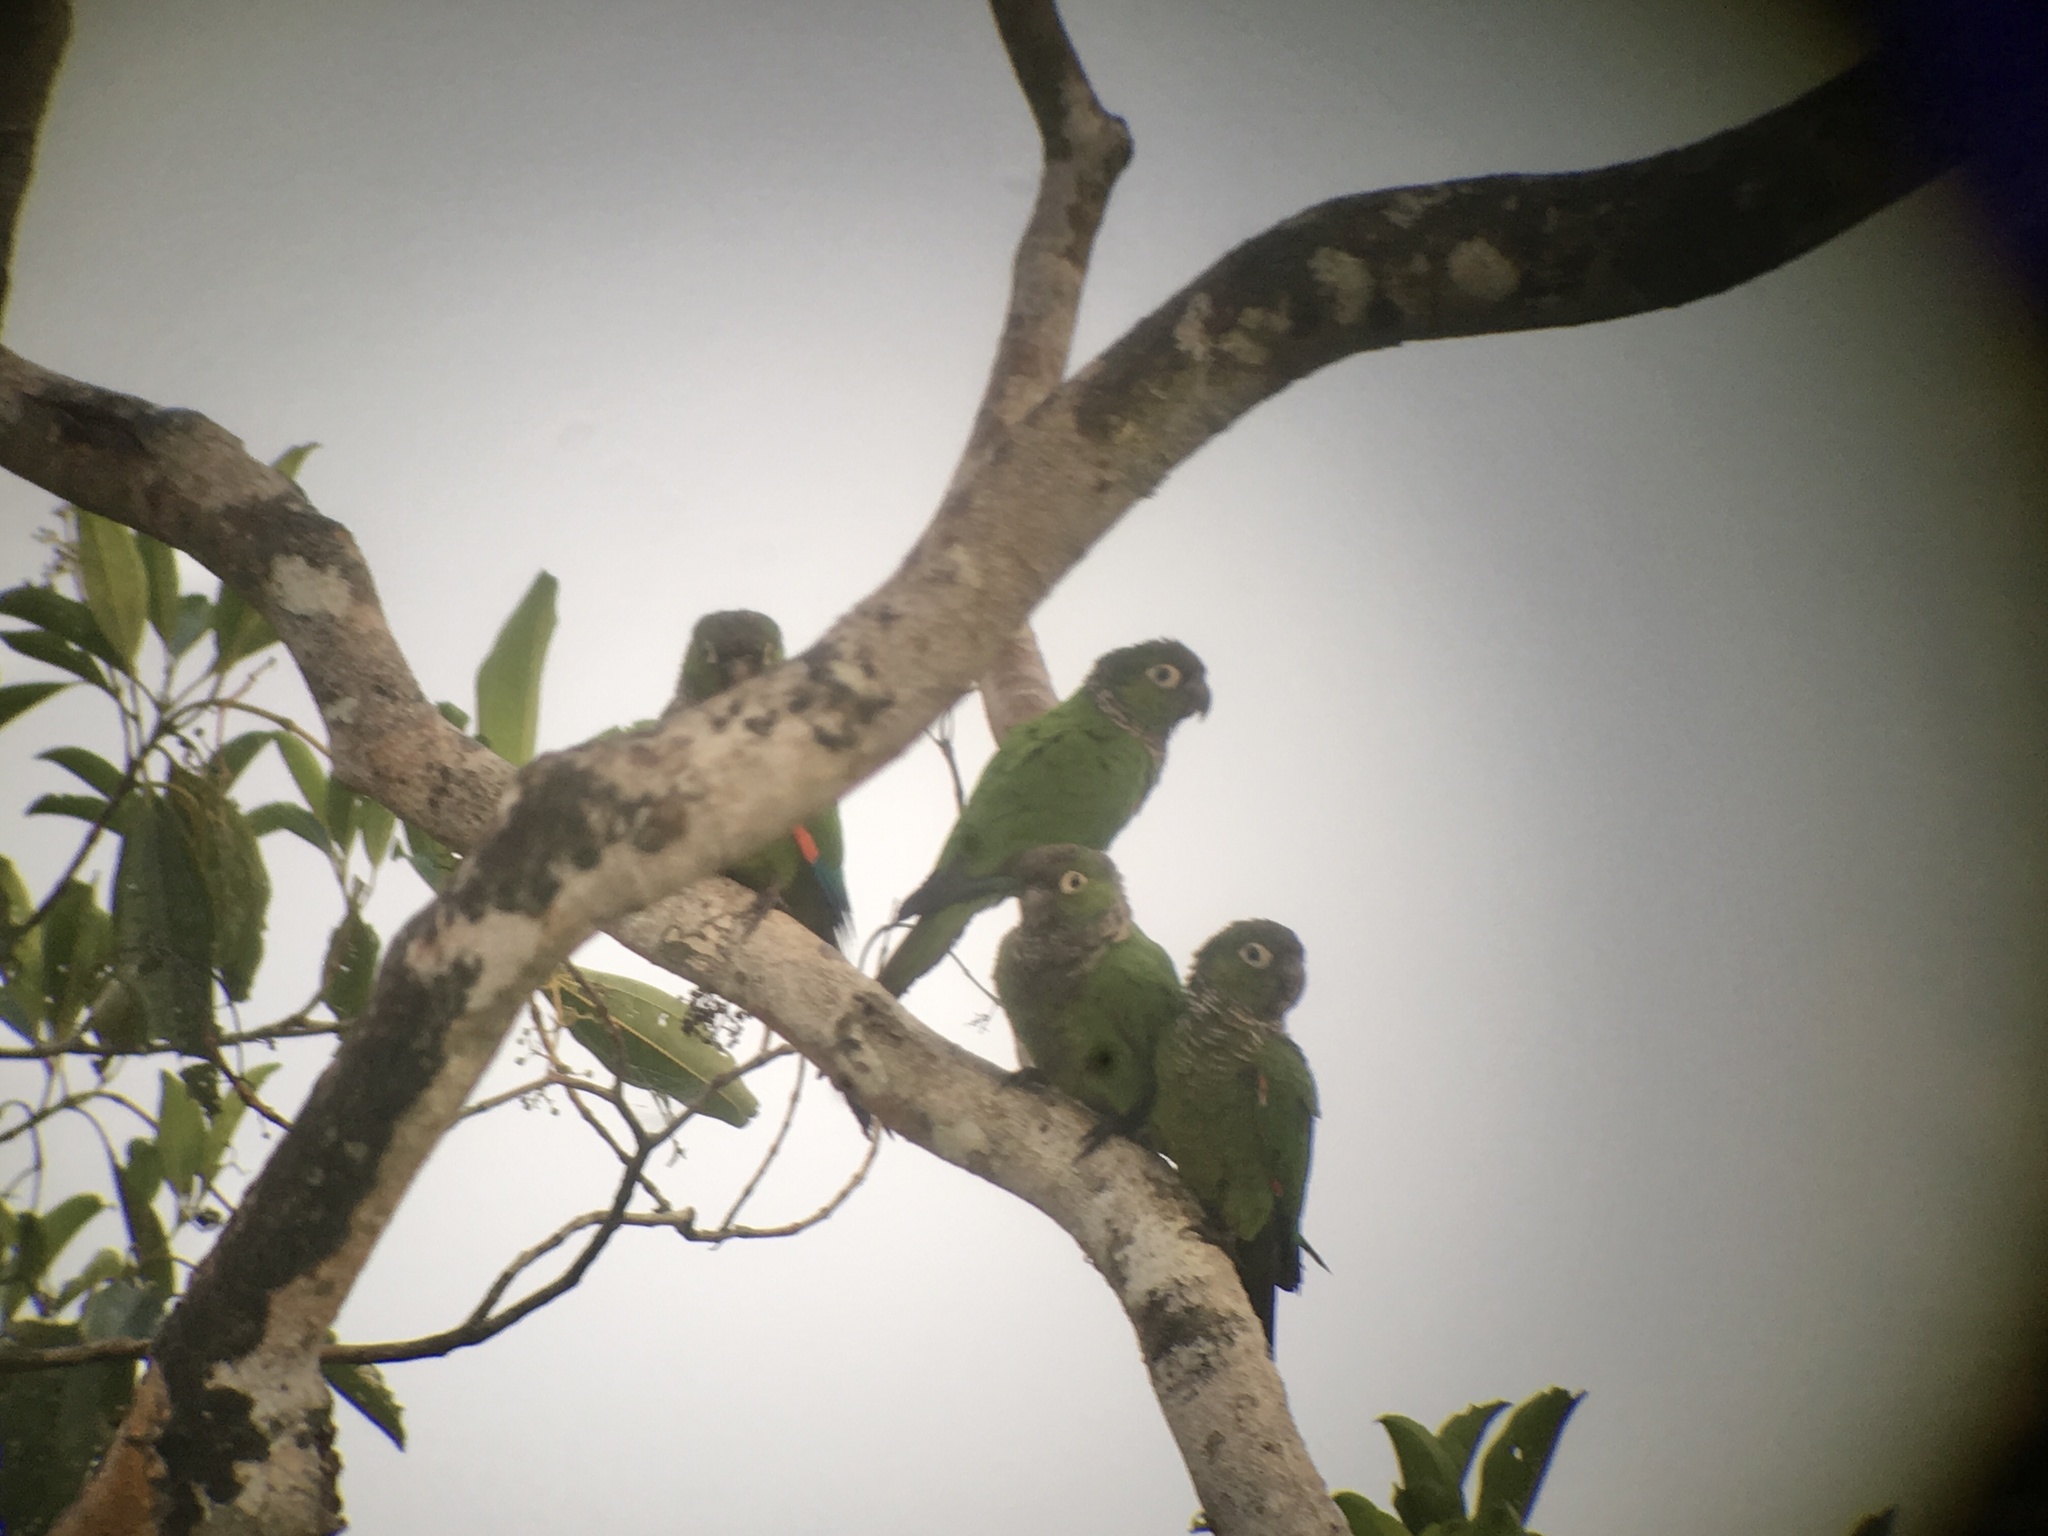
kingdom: Animalia
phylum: Chordata
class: Aves
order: Psittaciformes
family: Psittacidae
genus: Pyrrhura
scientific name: Pyrrhura melanura
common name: Maroon-tailed parakeet
